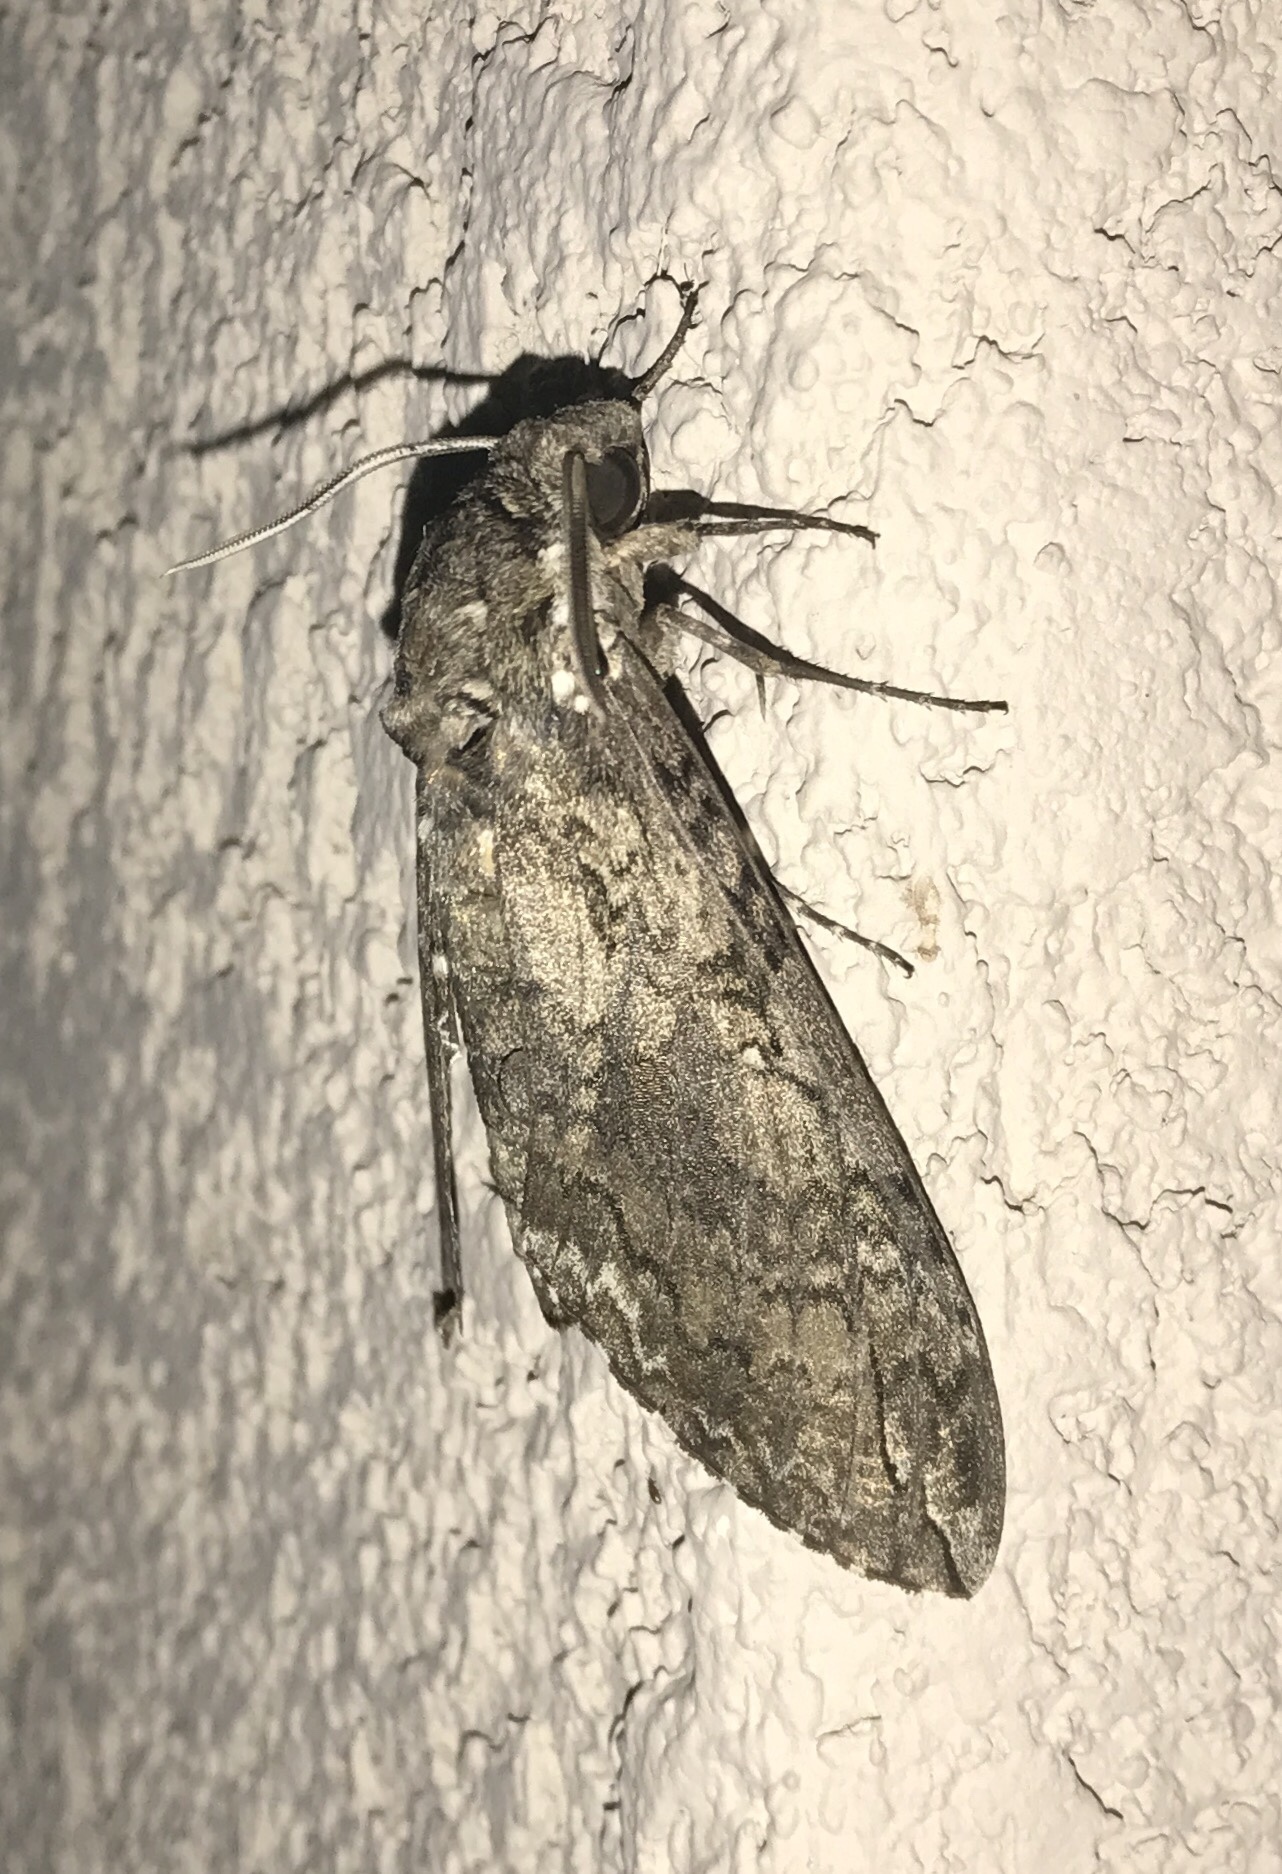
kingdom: Animalia
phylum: Arthropoda
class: Insecta
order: Lepidoptera
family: Sphingidae
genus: Manduca
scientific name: Manduca sexta
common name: Carolina sphinx
